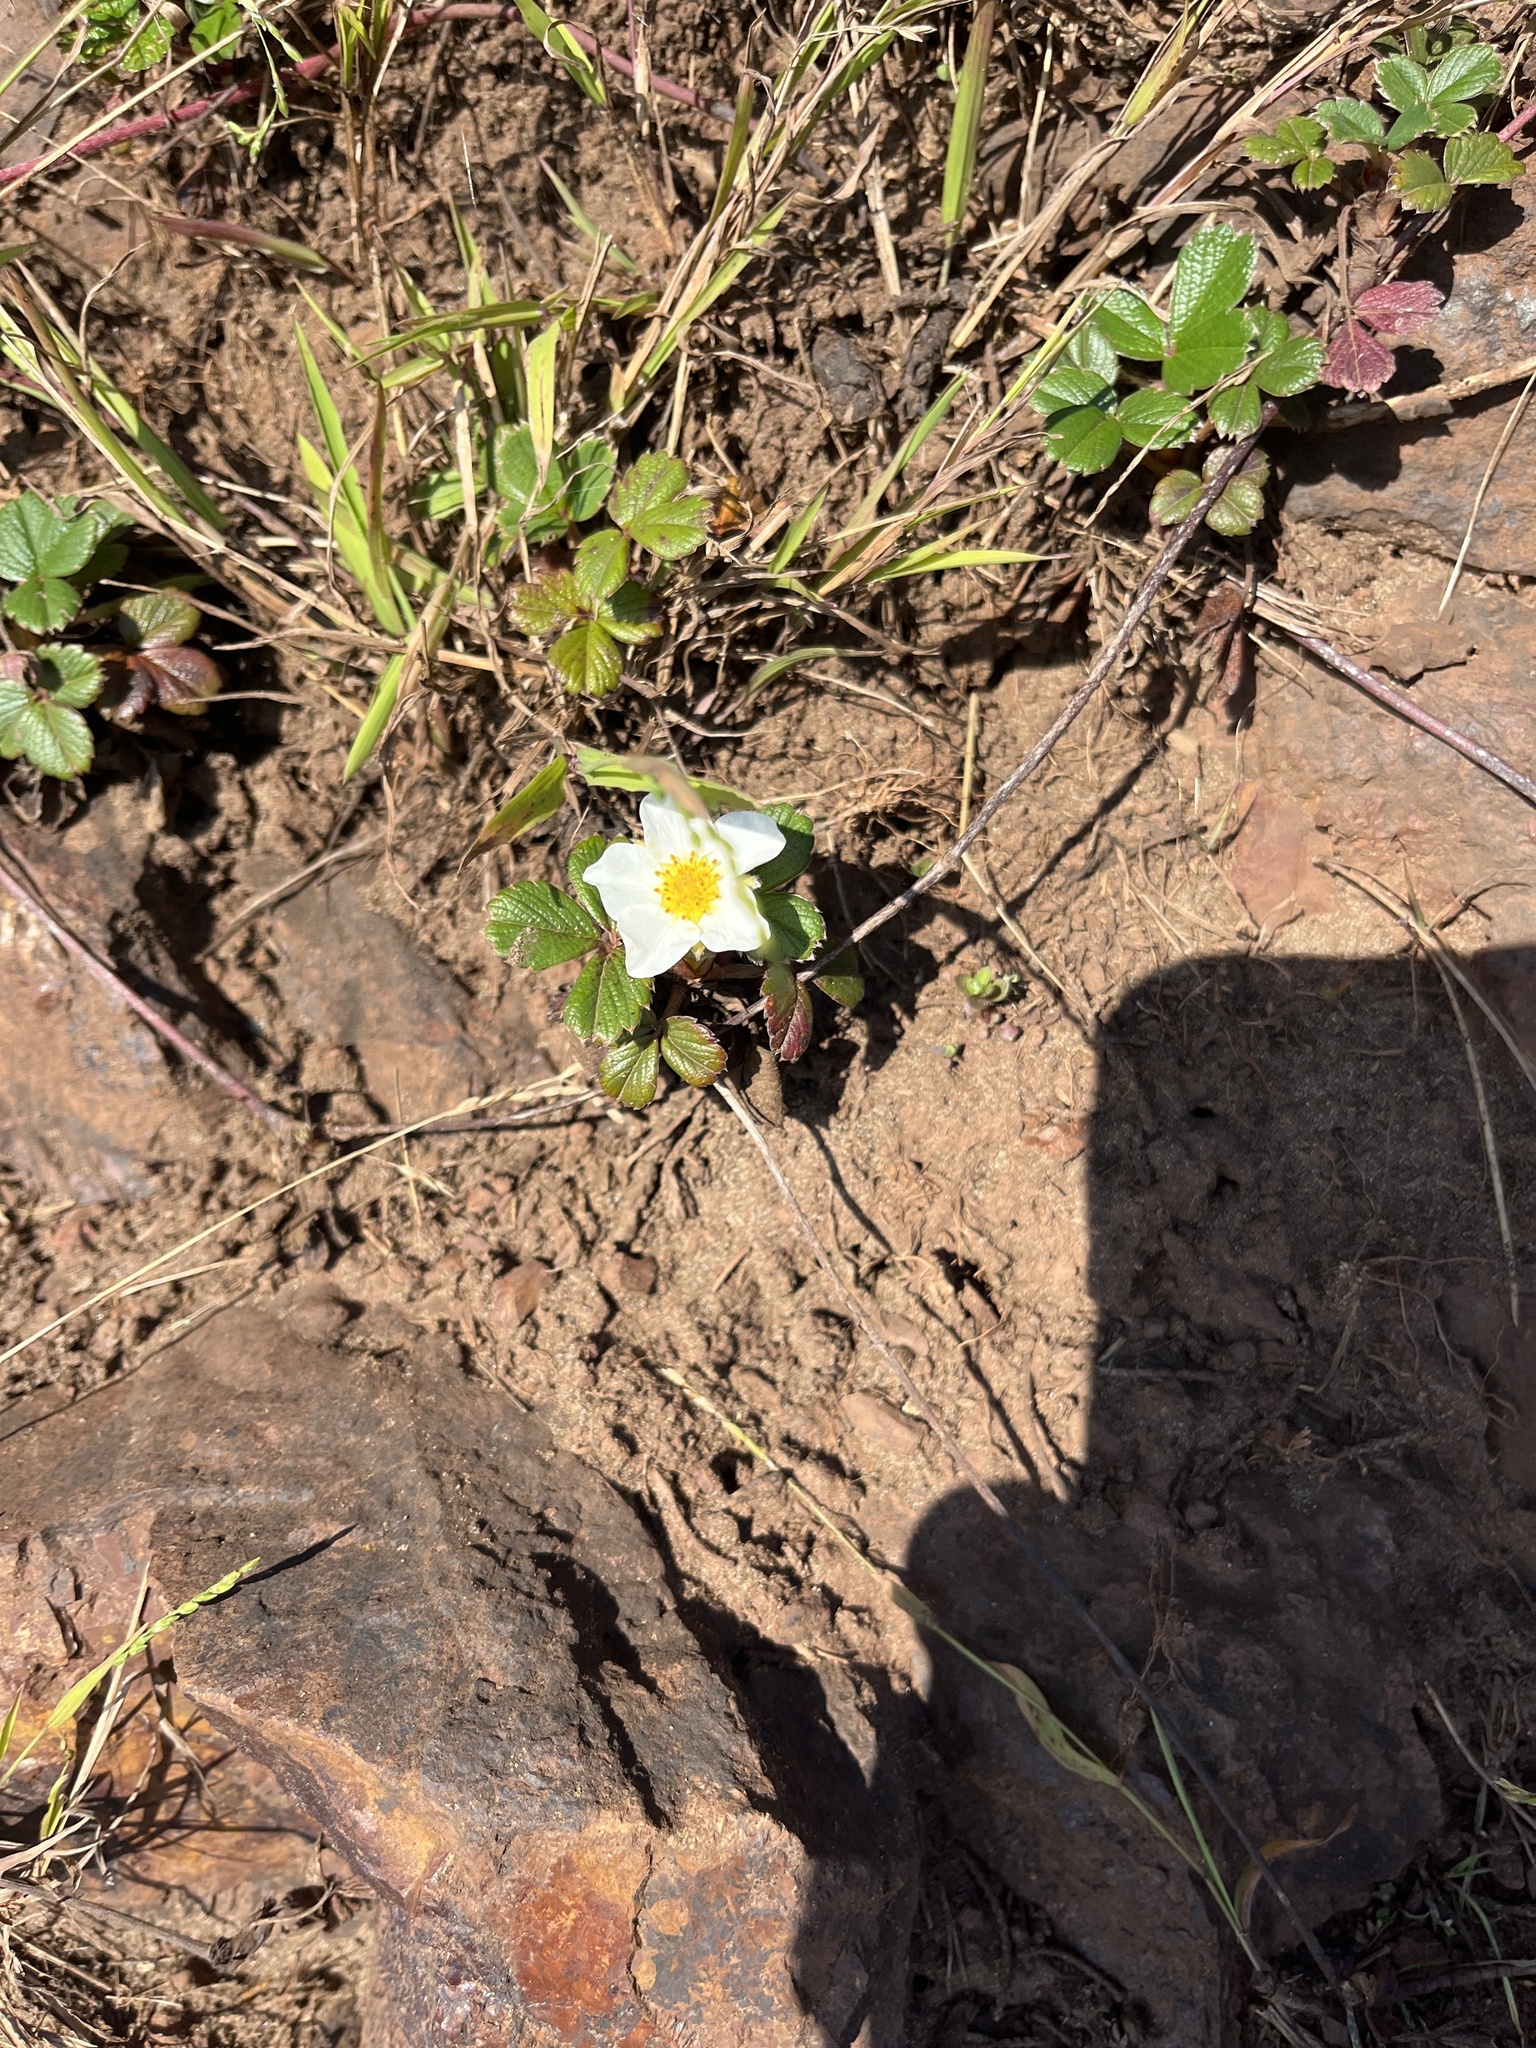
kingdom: Plantae
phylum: Tracheophyta
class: Magnoliopsida
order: Rosales
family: Rosaceae
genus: Fragaria
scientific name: Fragaria chiloensis
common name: Beach strawberry
